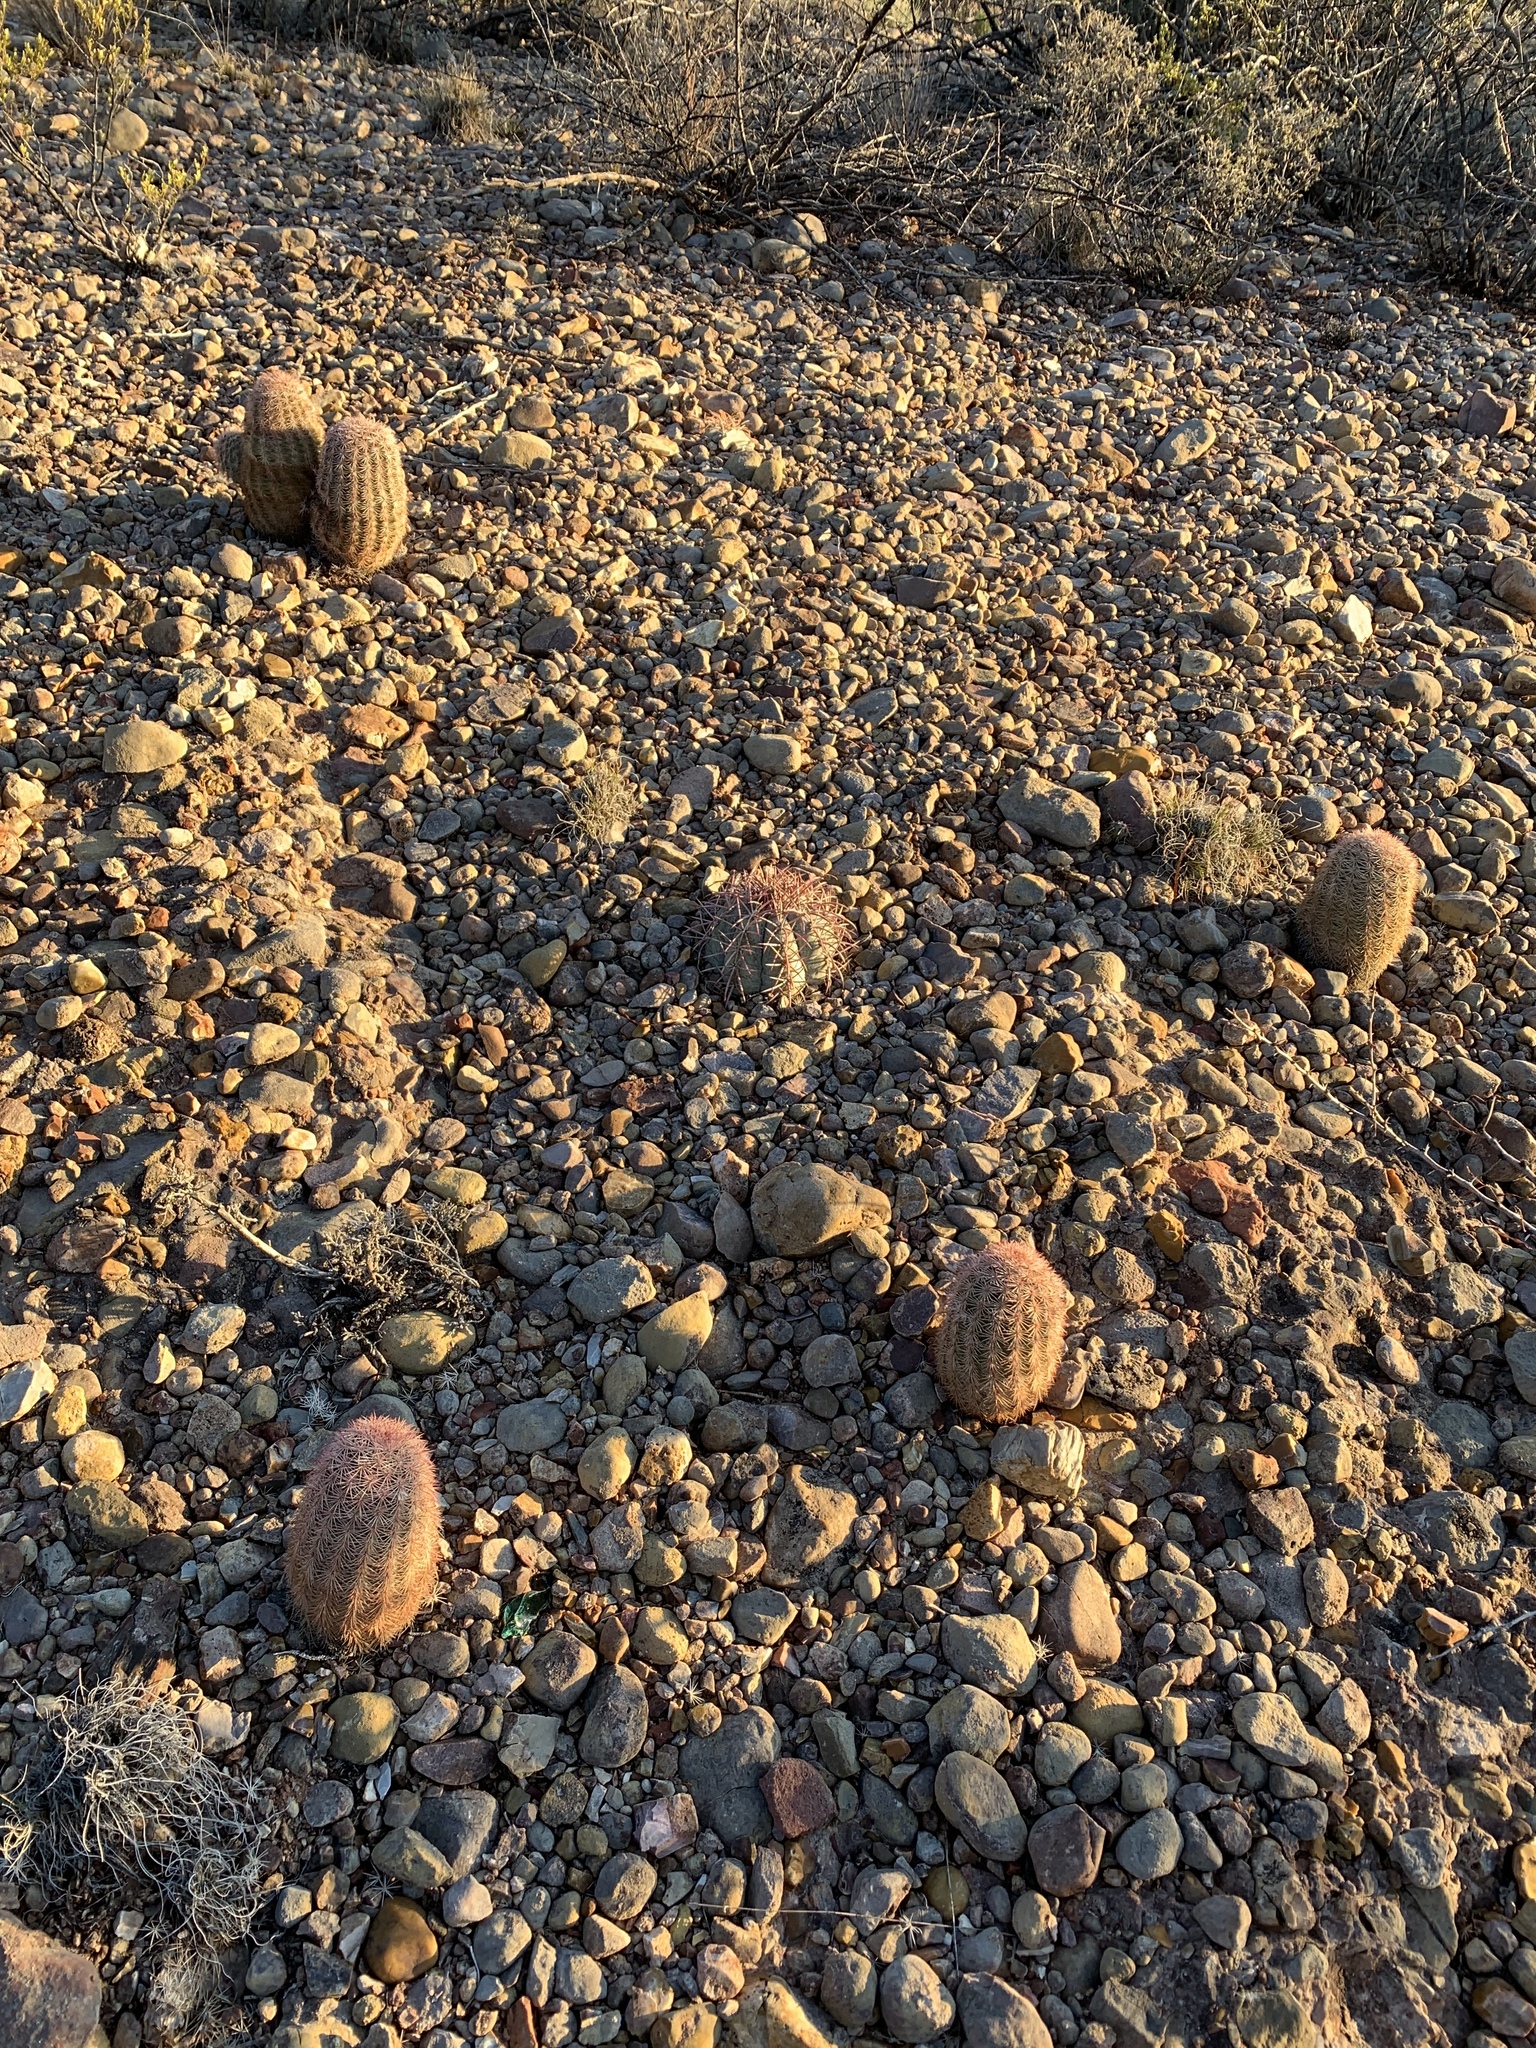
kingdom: Plantae
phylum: Tracheophyta
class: Magnoliopsida
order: Caryophyllales
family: Cactaceae
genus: Echinocereus
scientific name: Echinocereus dasyacanthus
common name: Spiny hedgehog cactus
